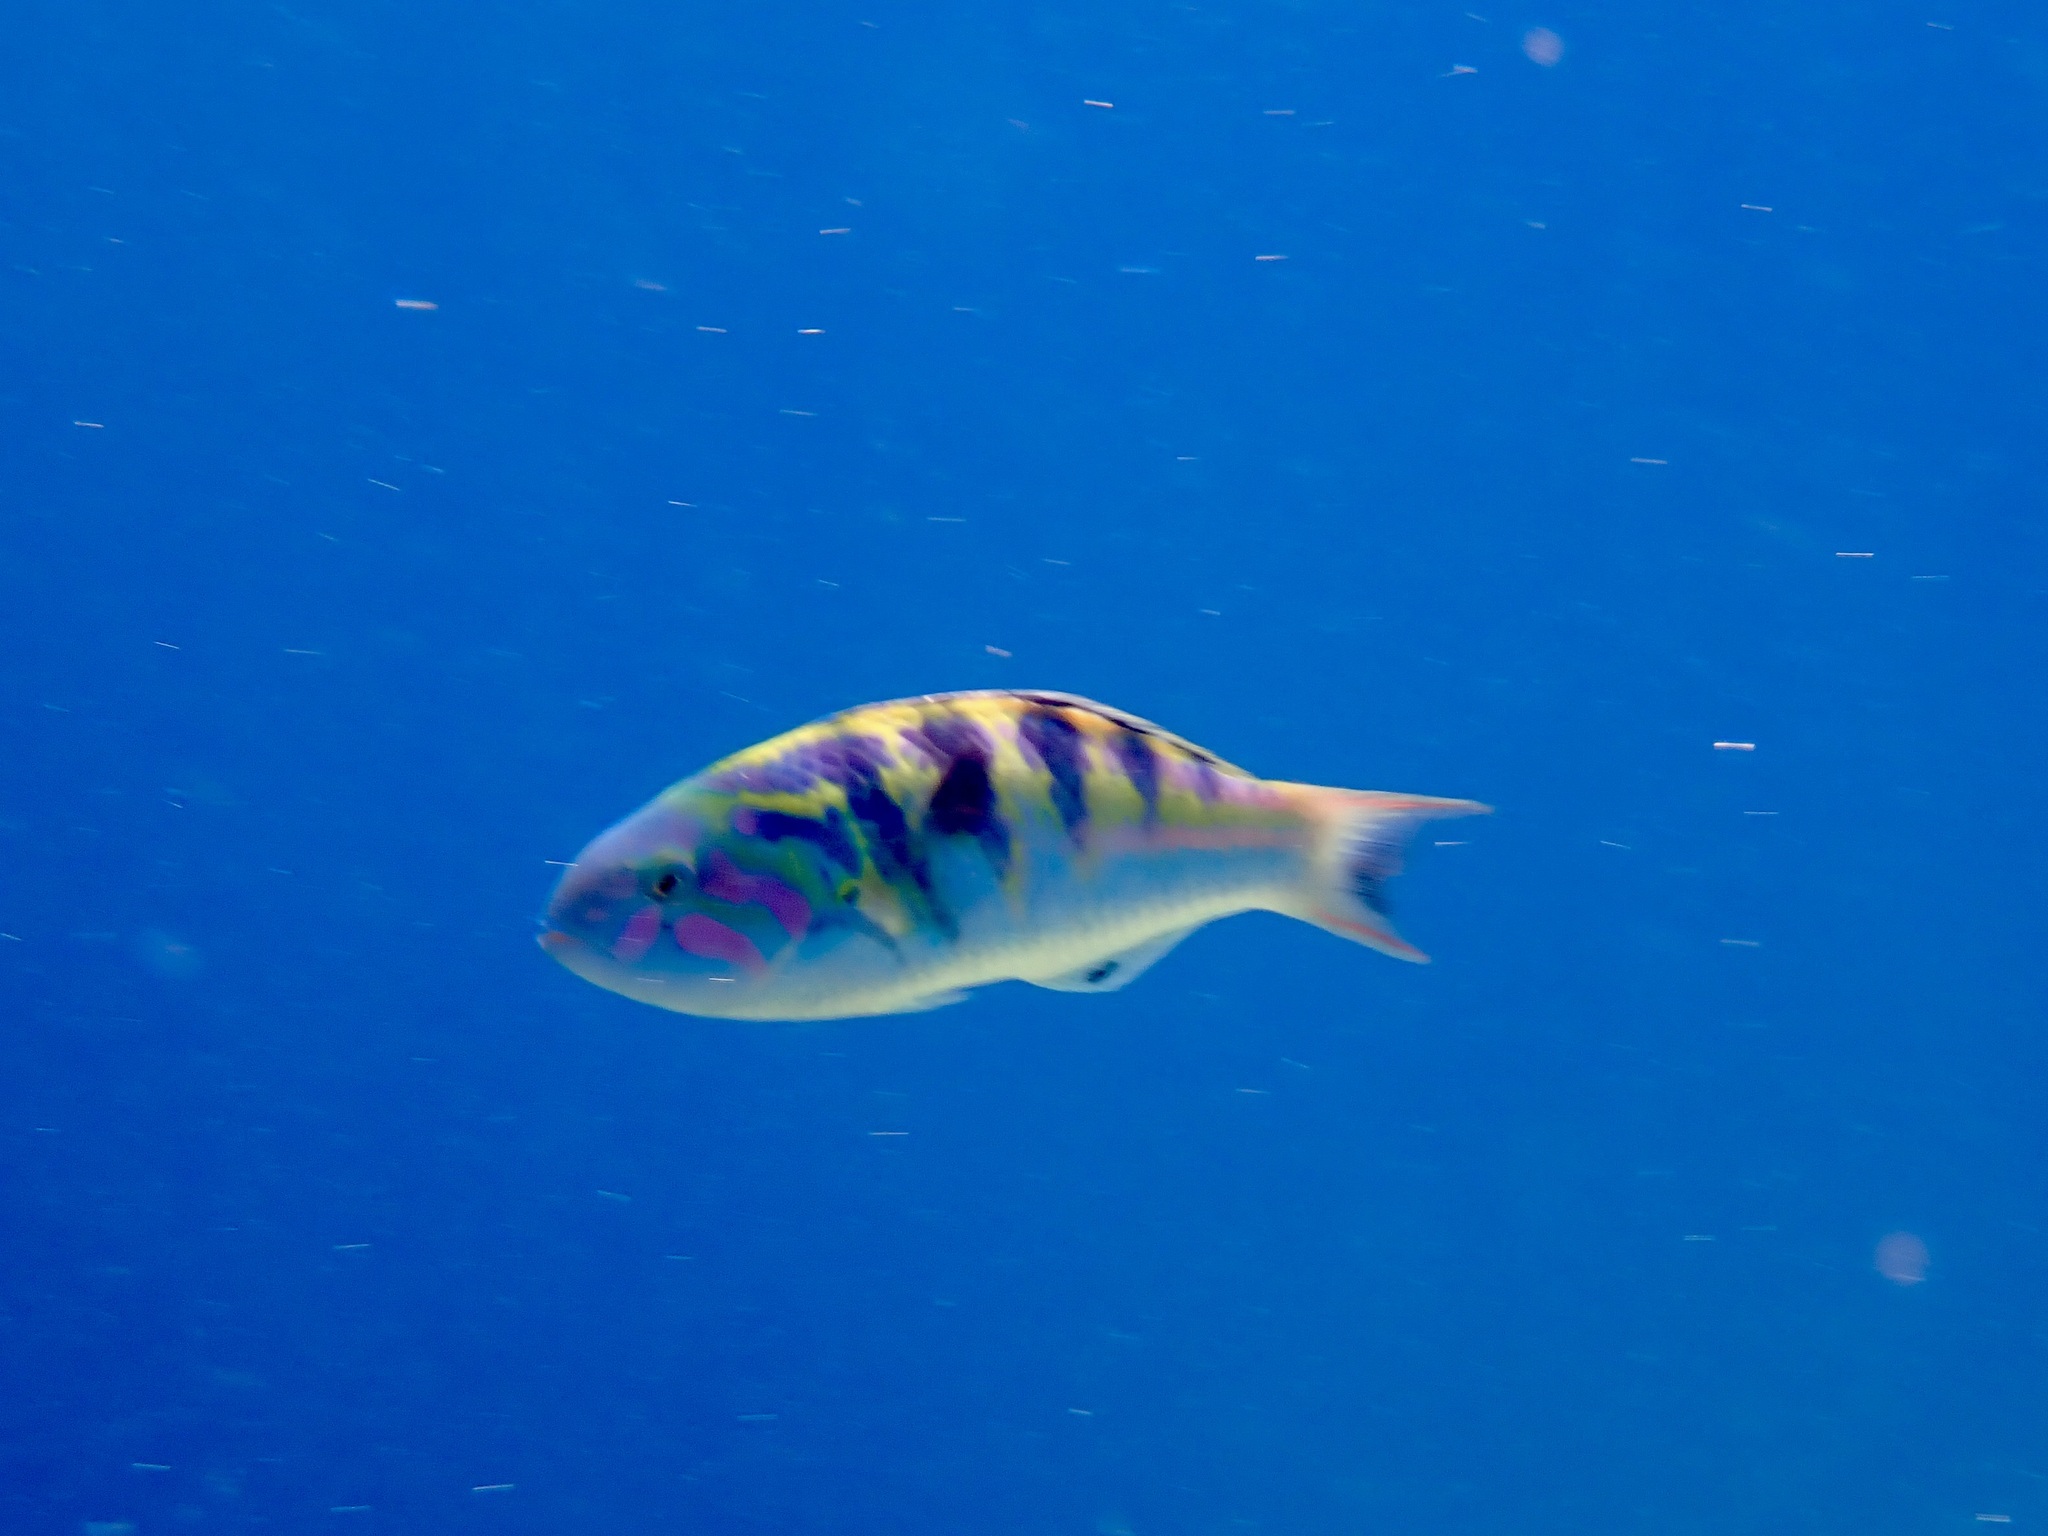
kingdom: Animalia
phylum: Chordata
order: Perciformes
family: Labridae
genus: Thalassoma
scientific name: Thalassoma hardwicke
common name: Sixbar wrasse
